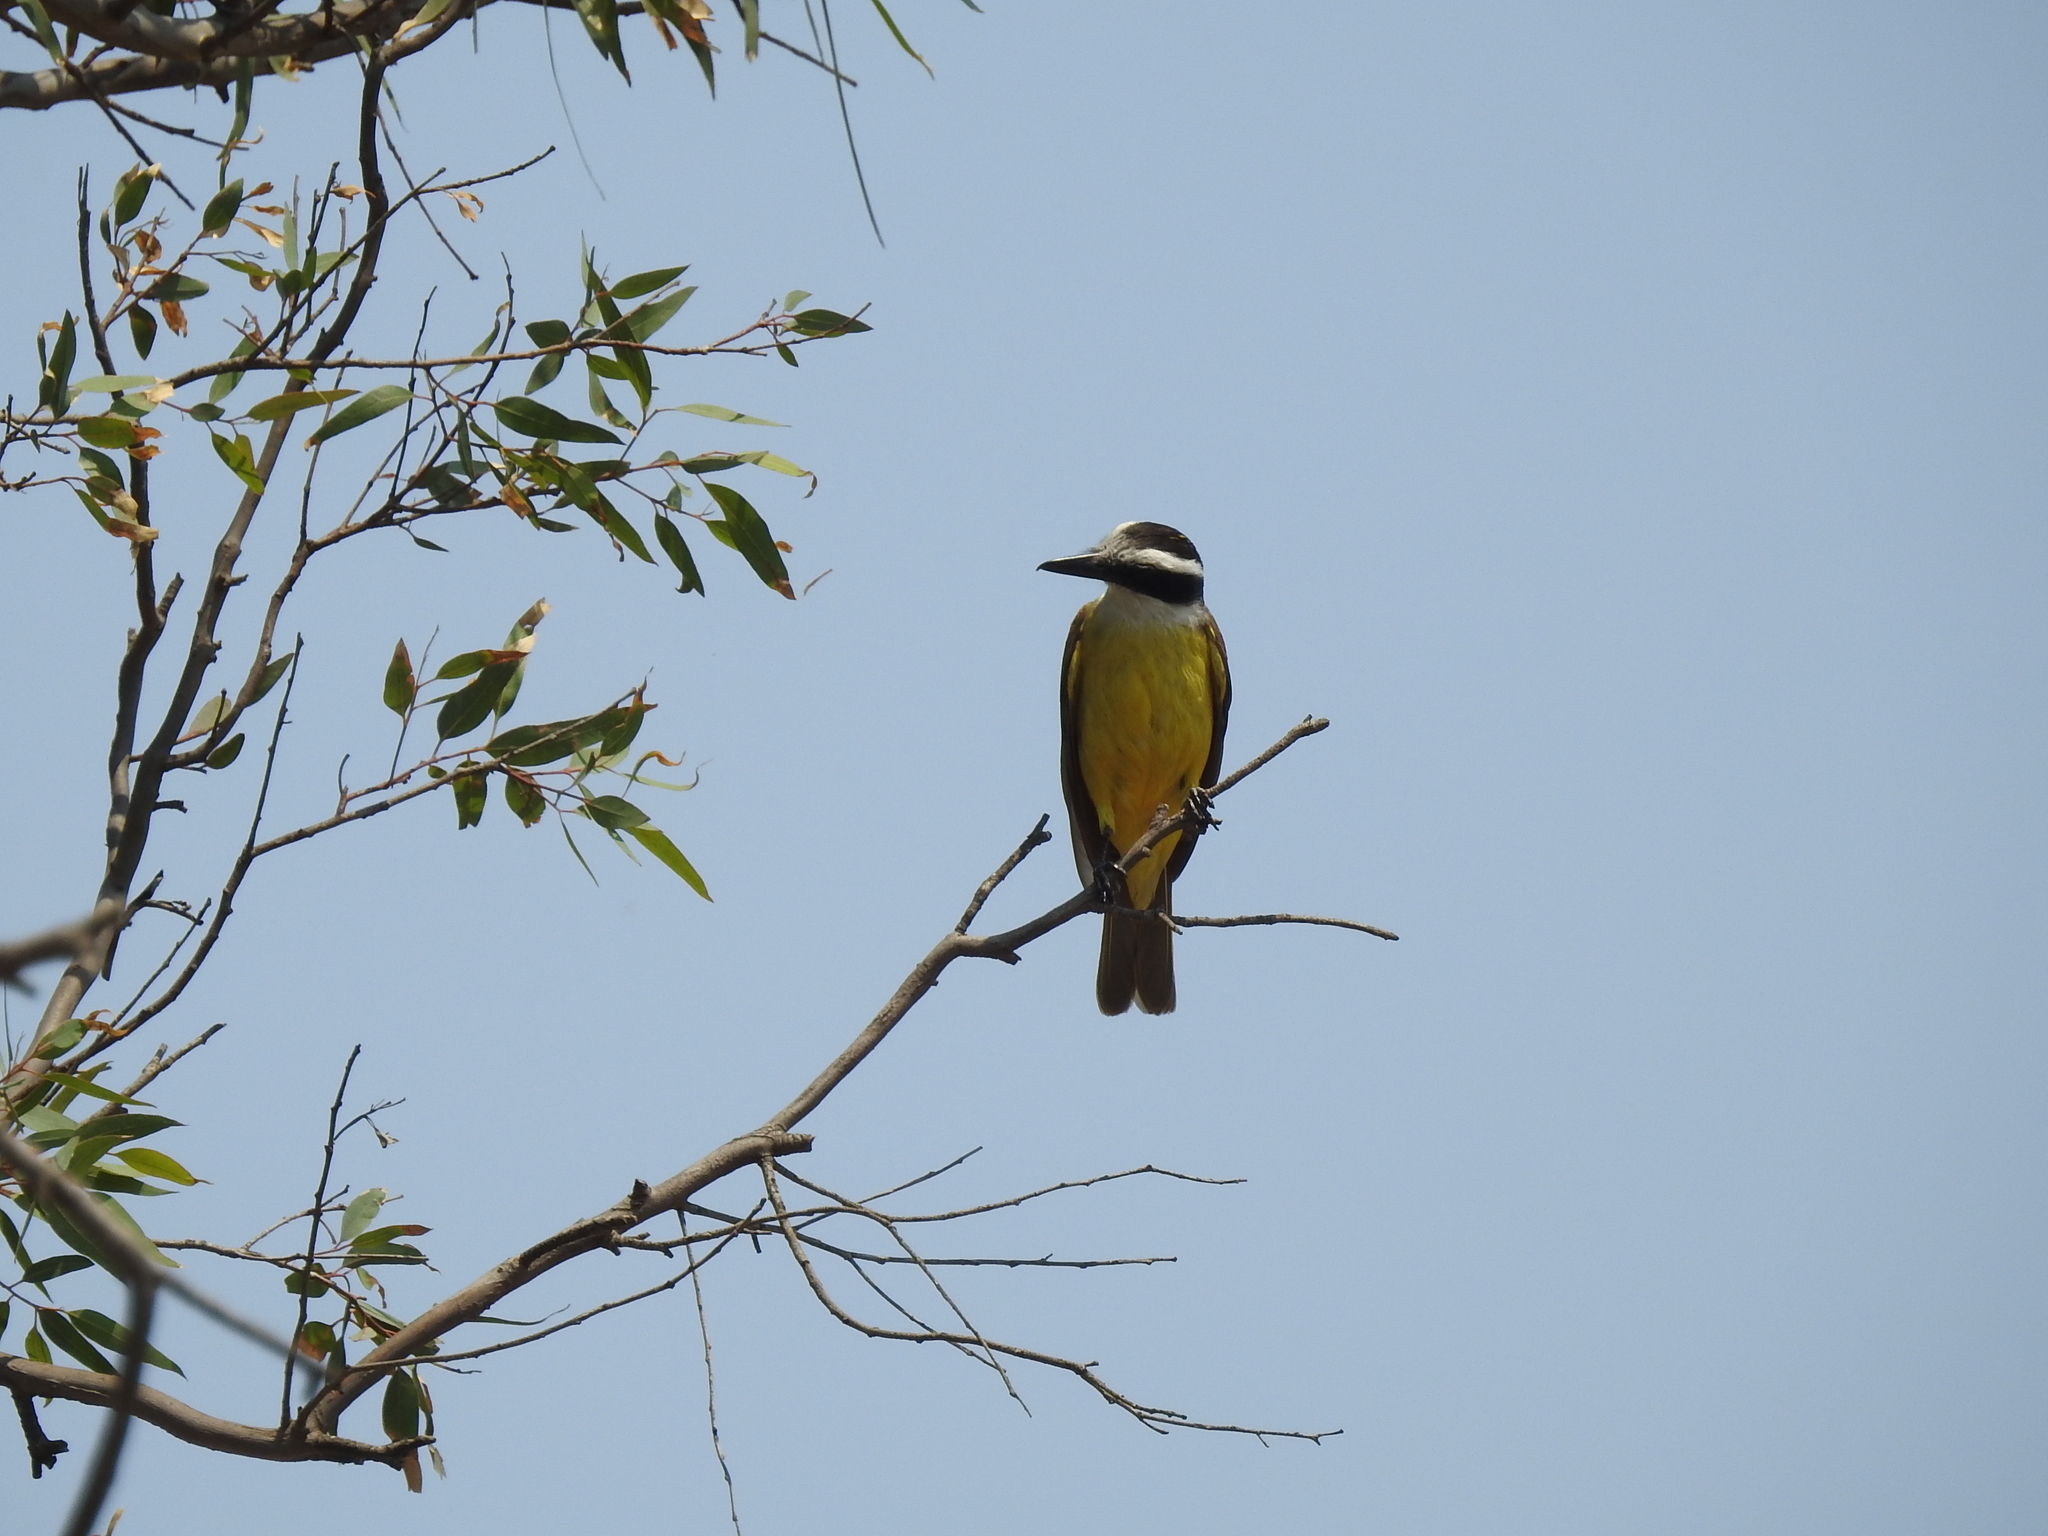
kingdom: Animalia
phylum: Chordata
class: Aves
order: Passeriformes
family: Tyrannidae
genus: Pitangus
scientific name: Pitangus sulphuratus
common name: Great kiskadee
